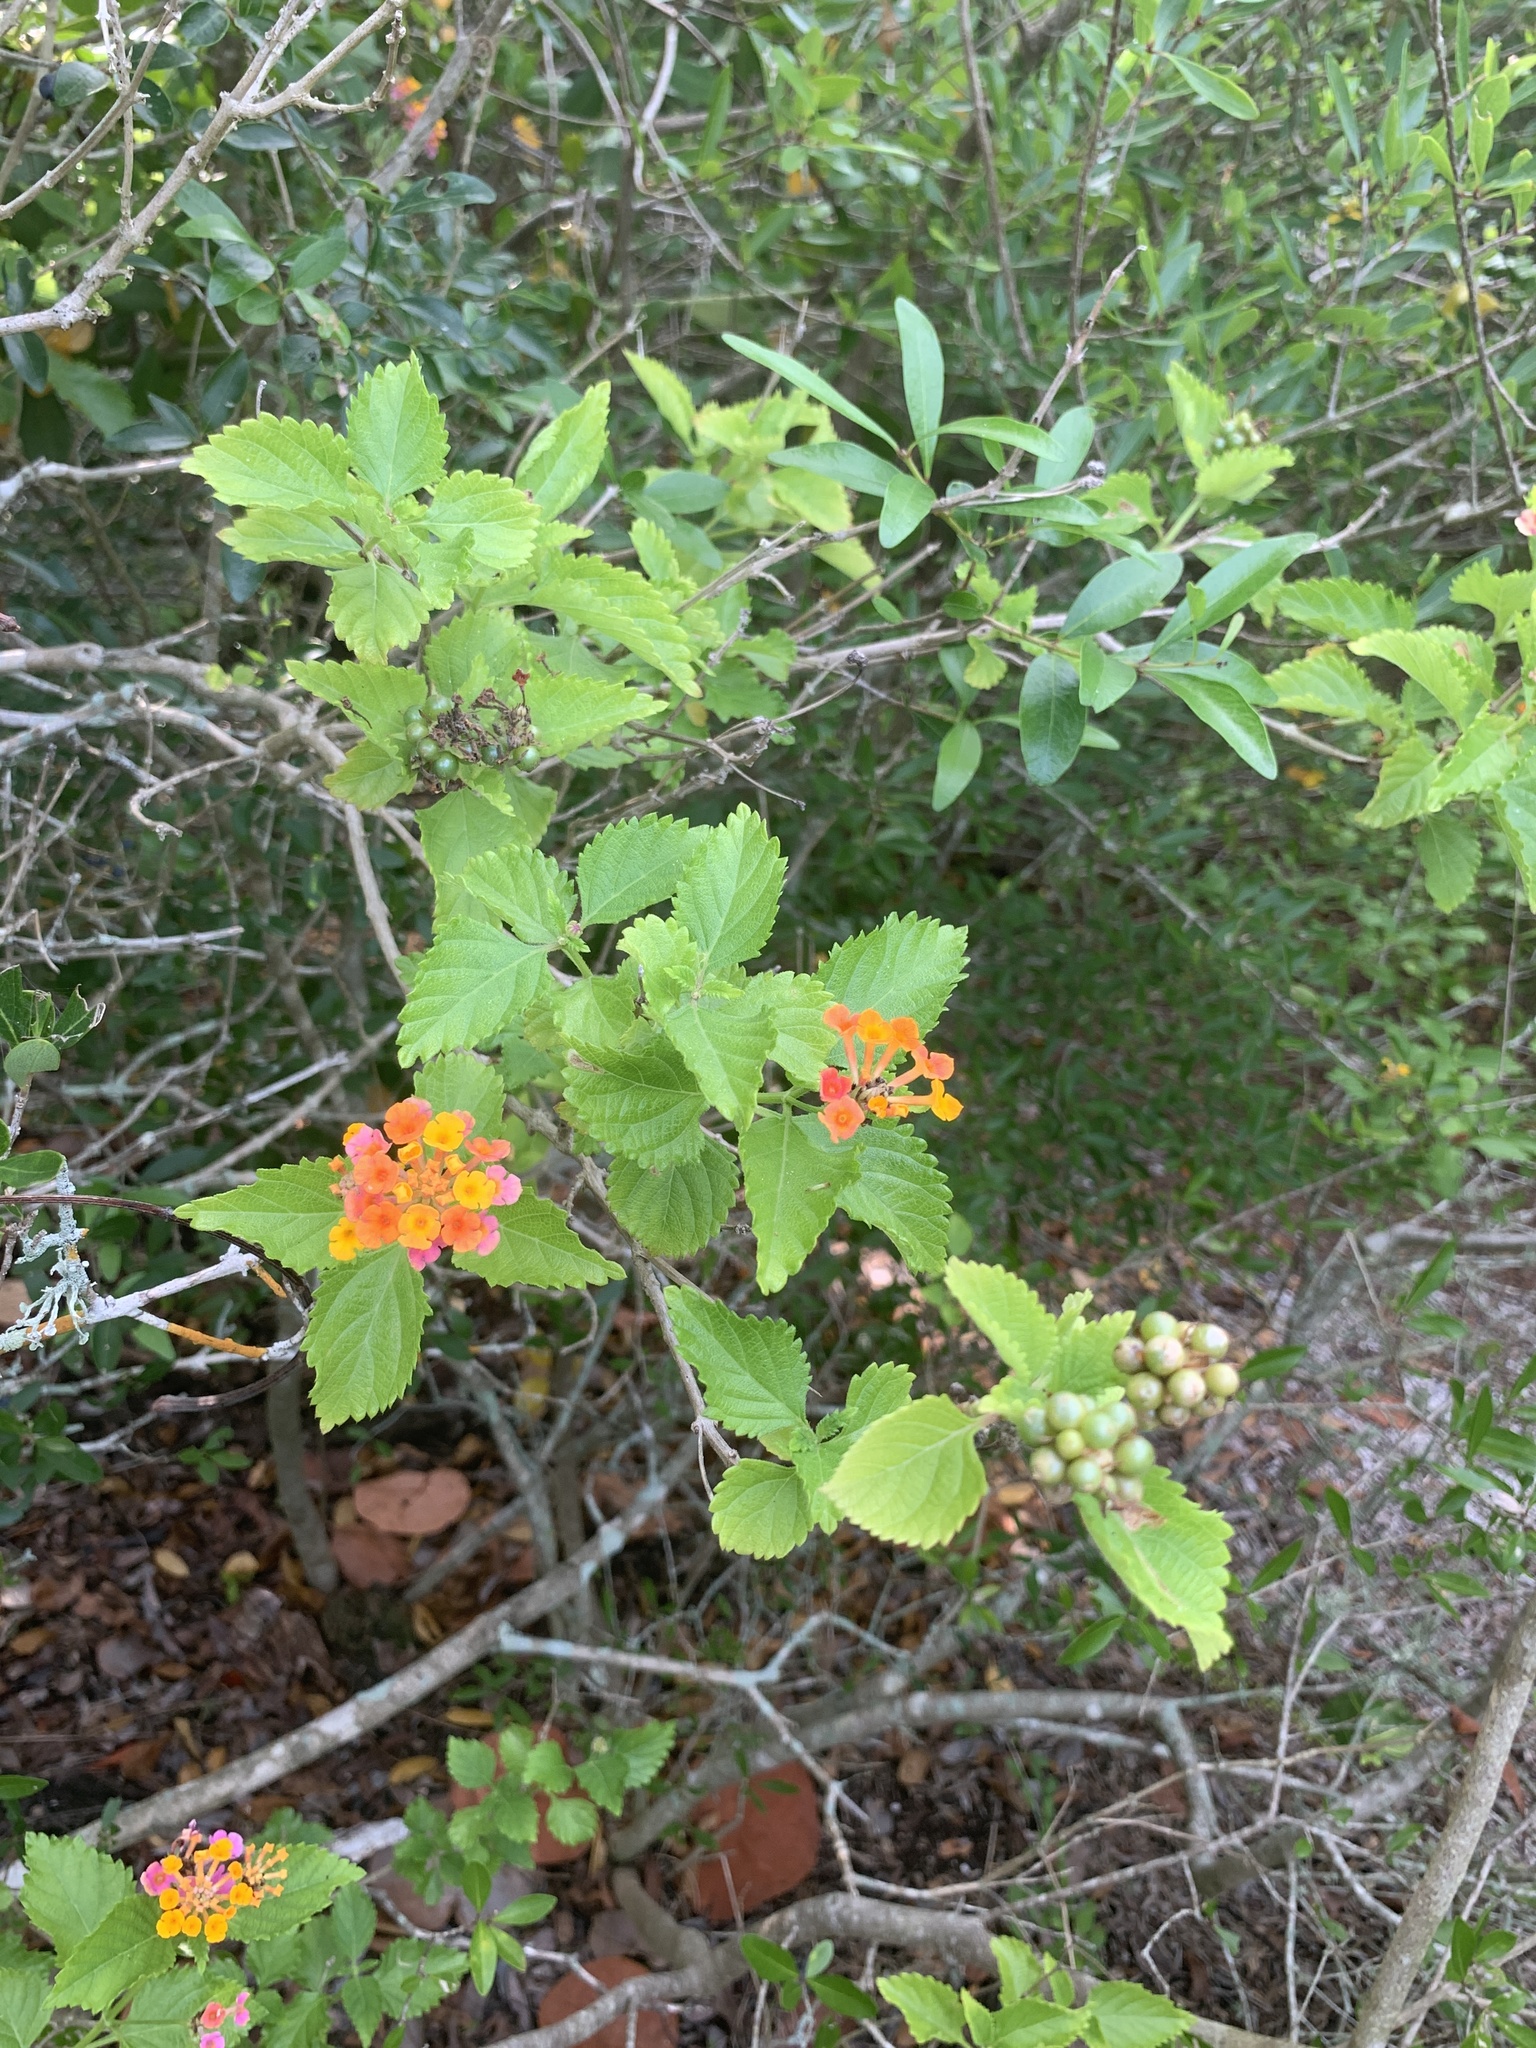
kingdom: Plantae
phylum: Tracheophyta
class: Magnoliopsida
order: Lamiales
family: Verbenaceae
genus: Lantana
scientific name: Lantana camara
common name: Lantana
